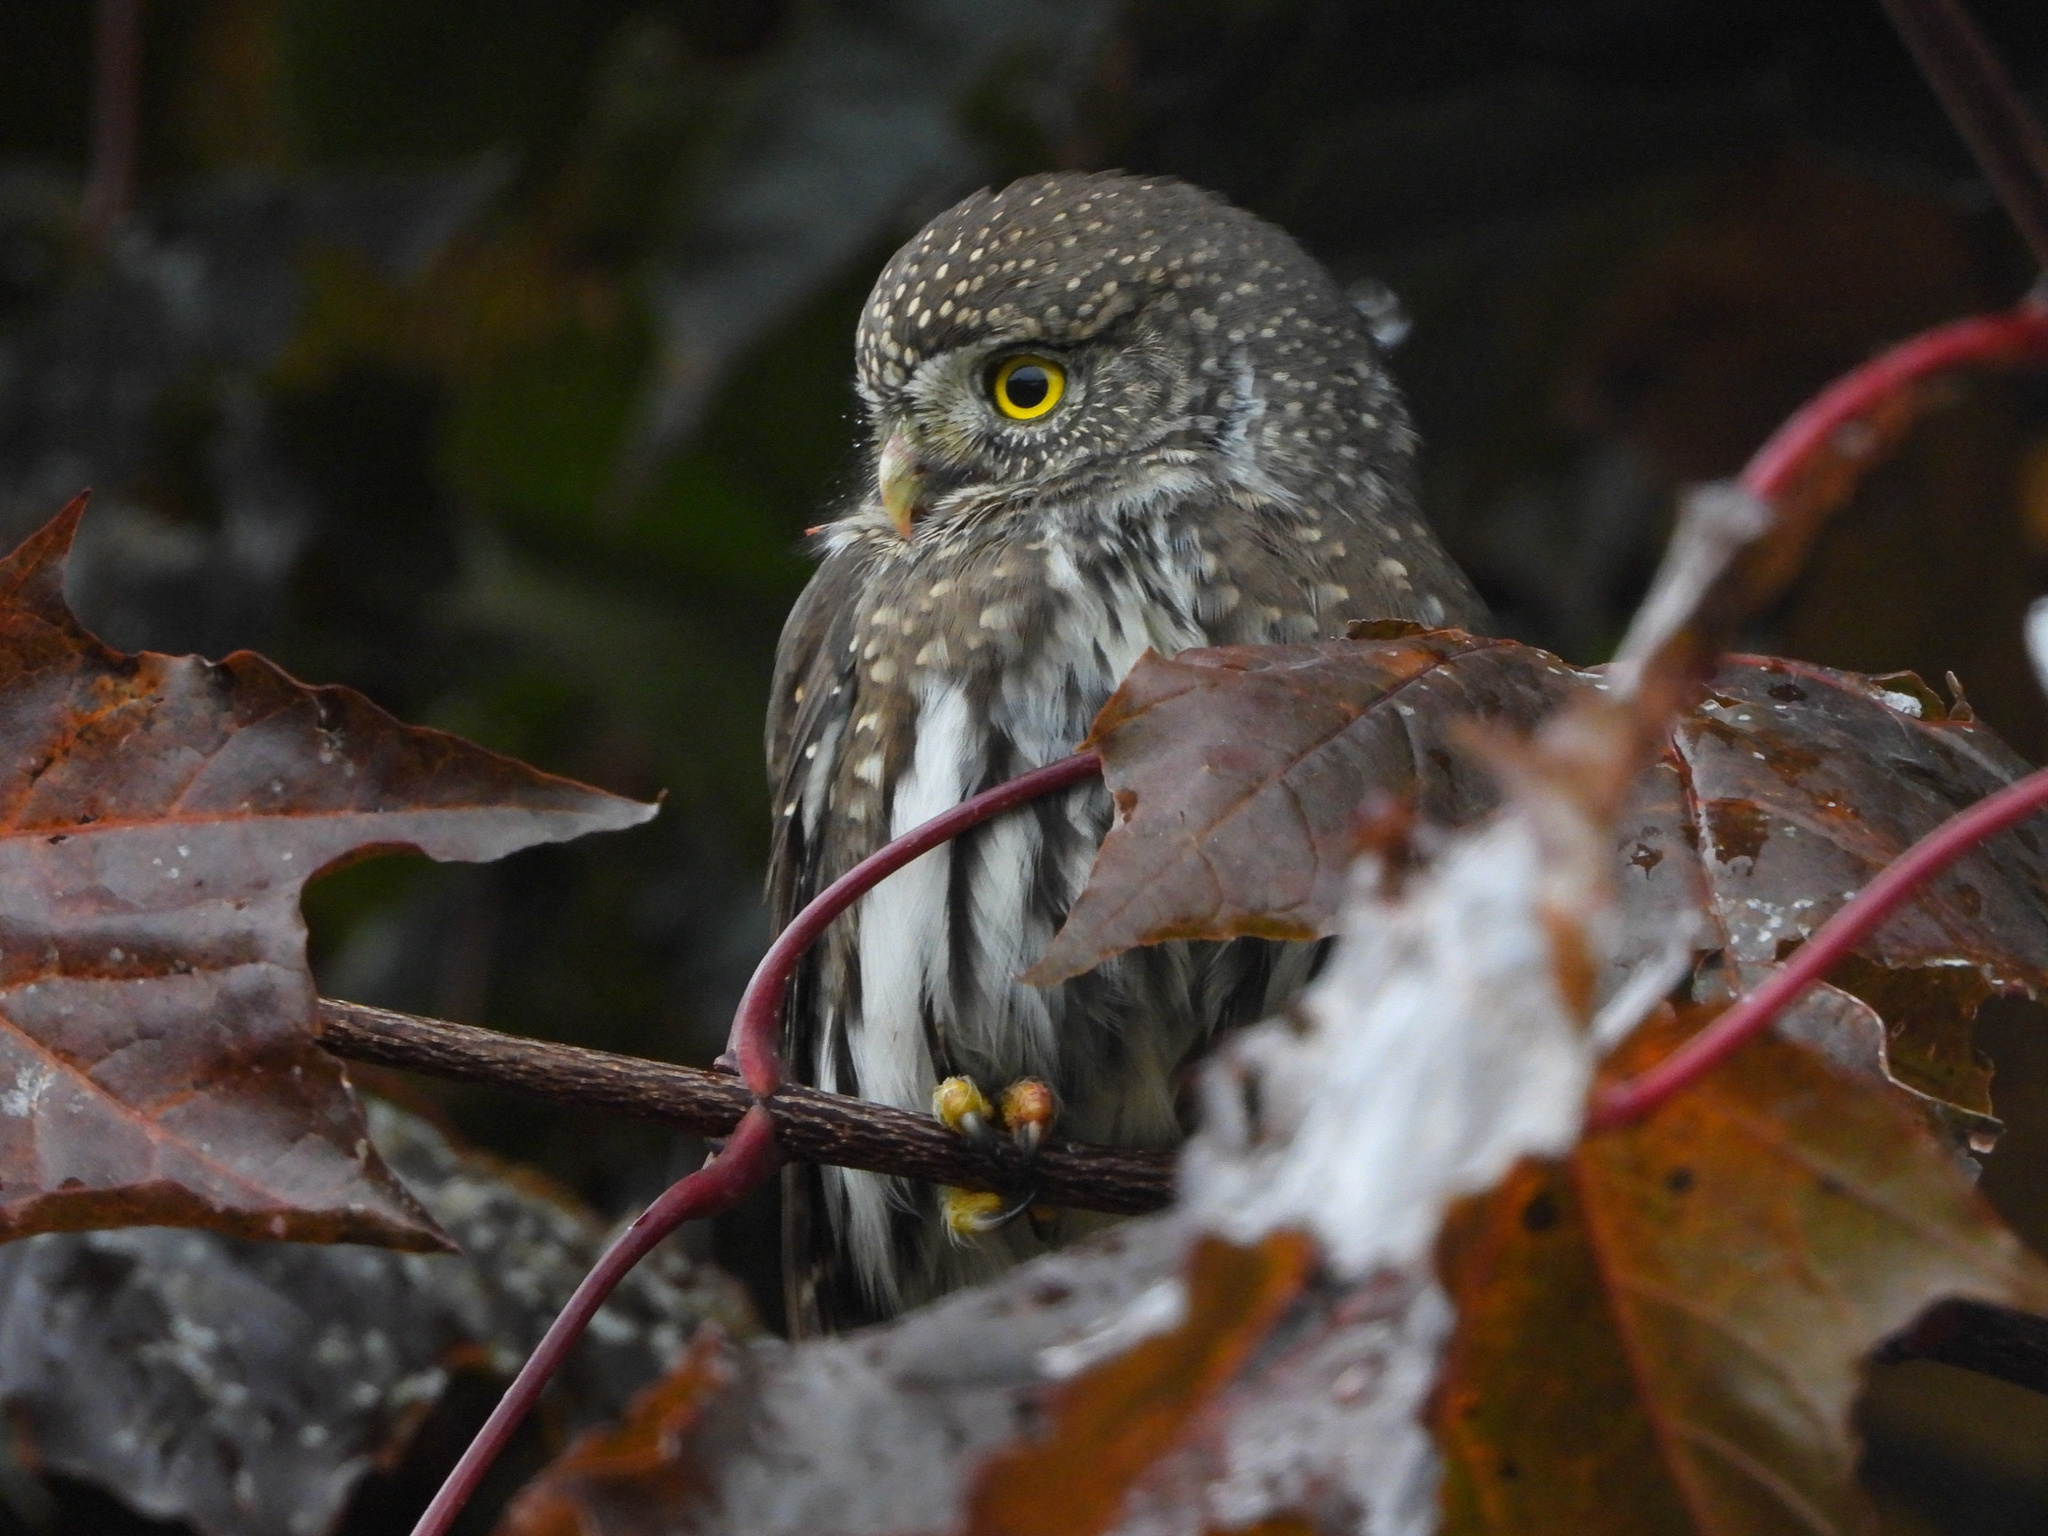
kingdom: Animalia
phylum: Chordata
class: Aves
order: Strigiformes
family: Strigidae
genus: Glaucidium
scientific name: Glaucidium gnoma
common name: Northern pygmy-owl
